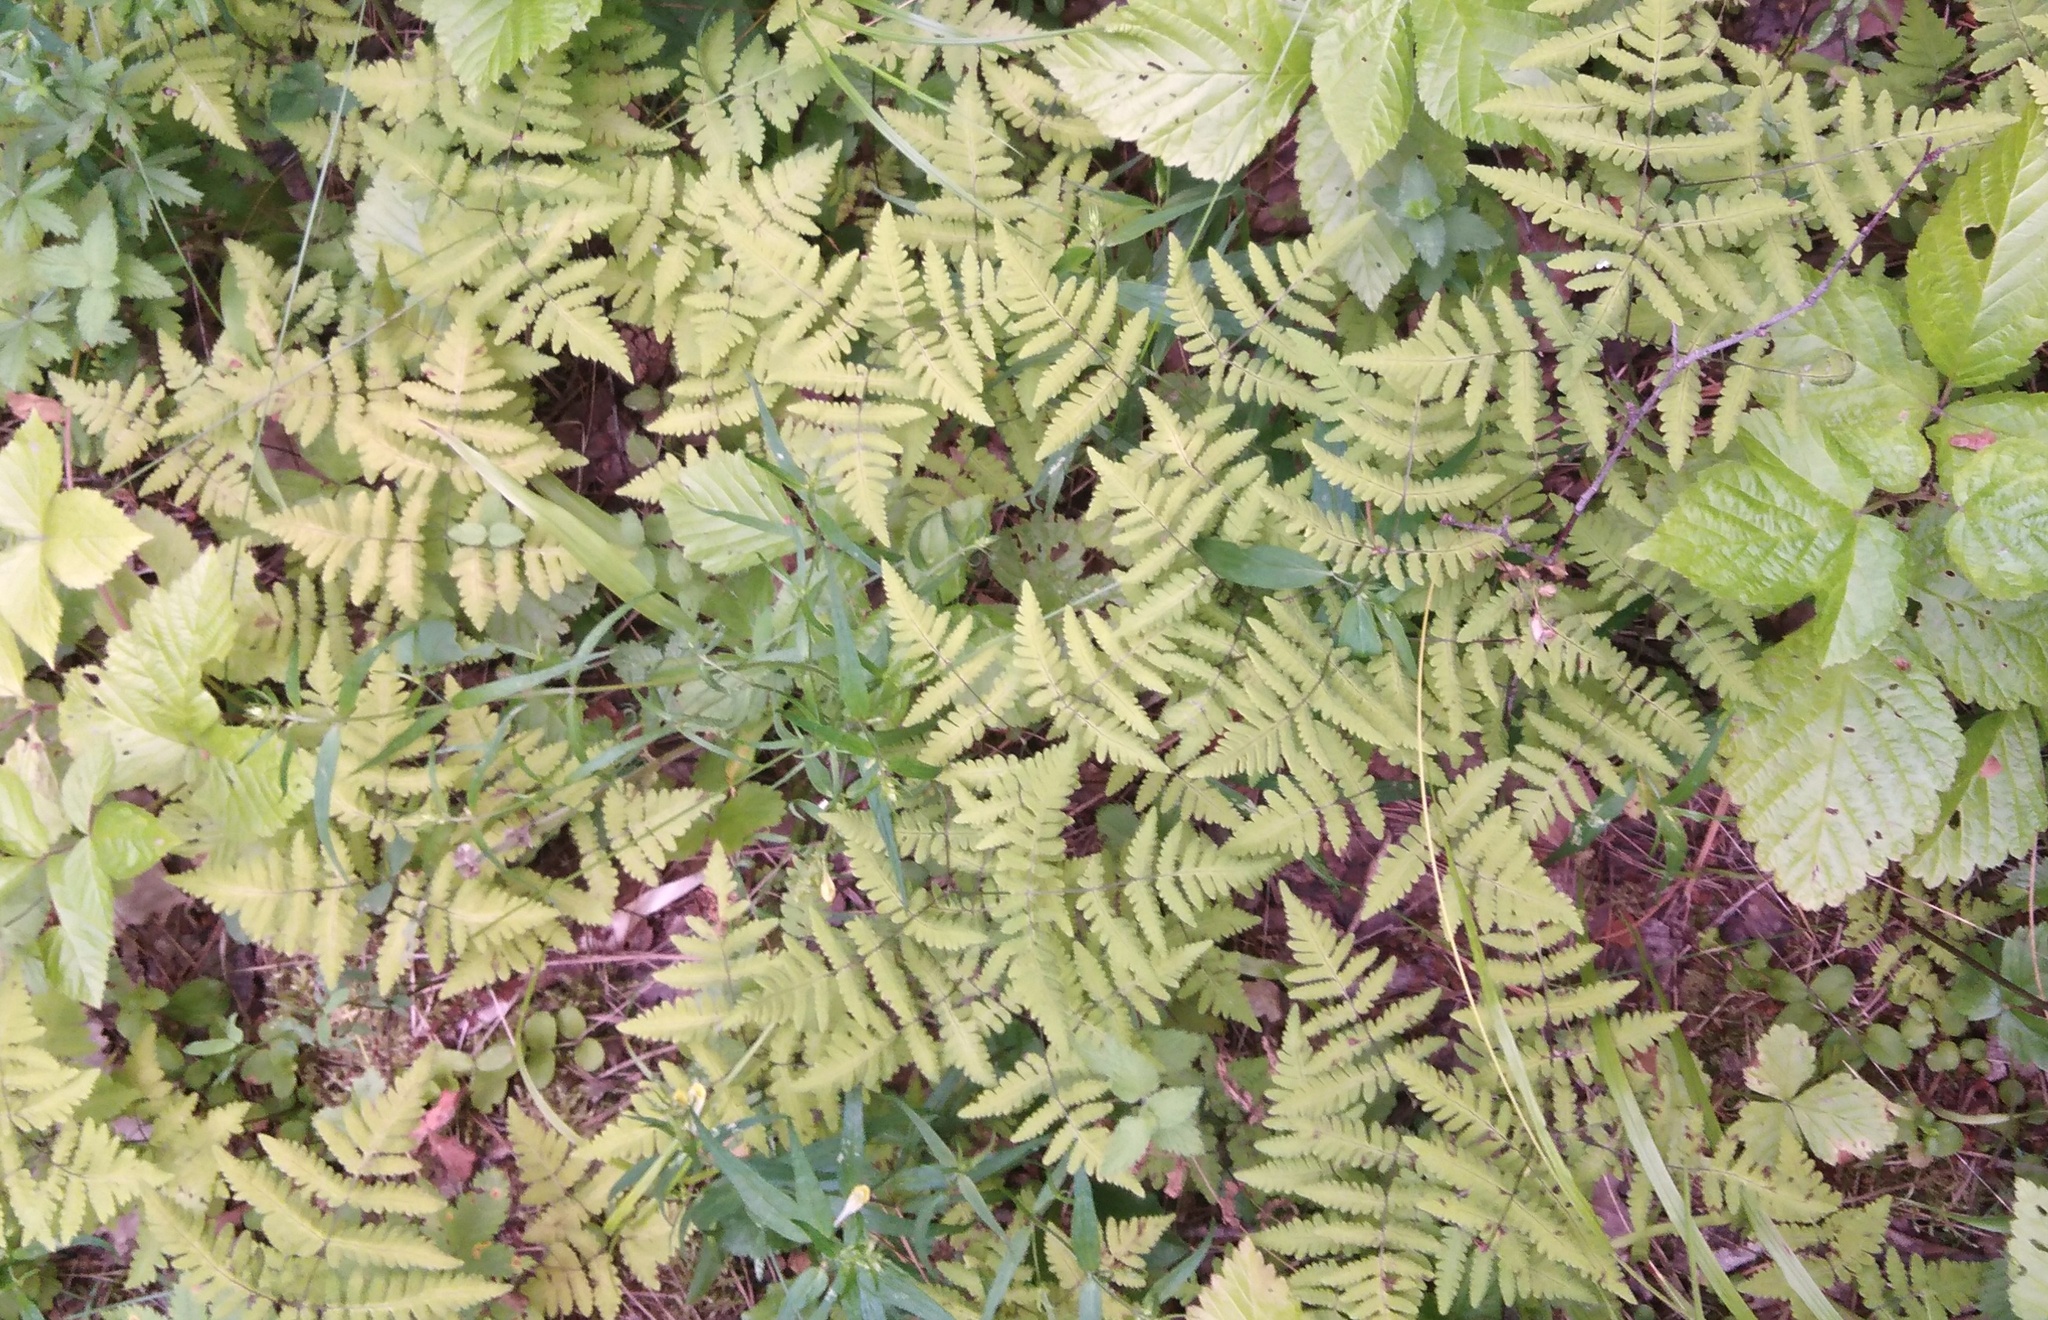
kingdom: Plantae
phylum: Tracheophyta
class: Polypodiopsida
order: Polypodiales
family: Cystopteridaceae
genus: Gymnocarpium
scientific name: Gymnocarpium dryopteris
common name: Oak fern
